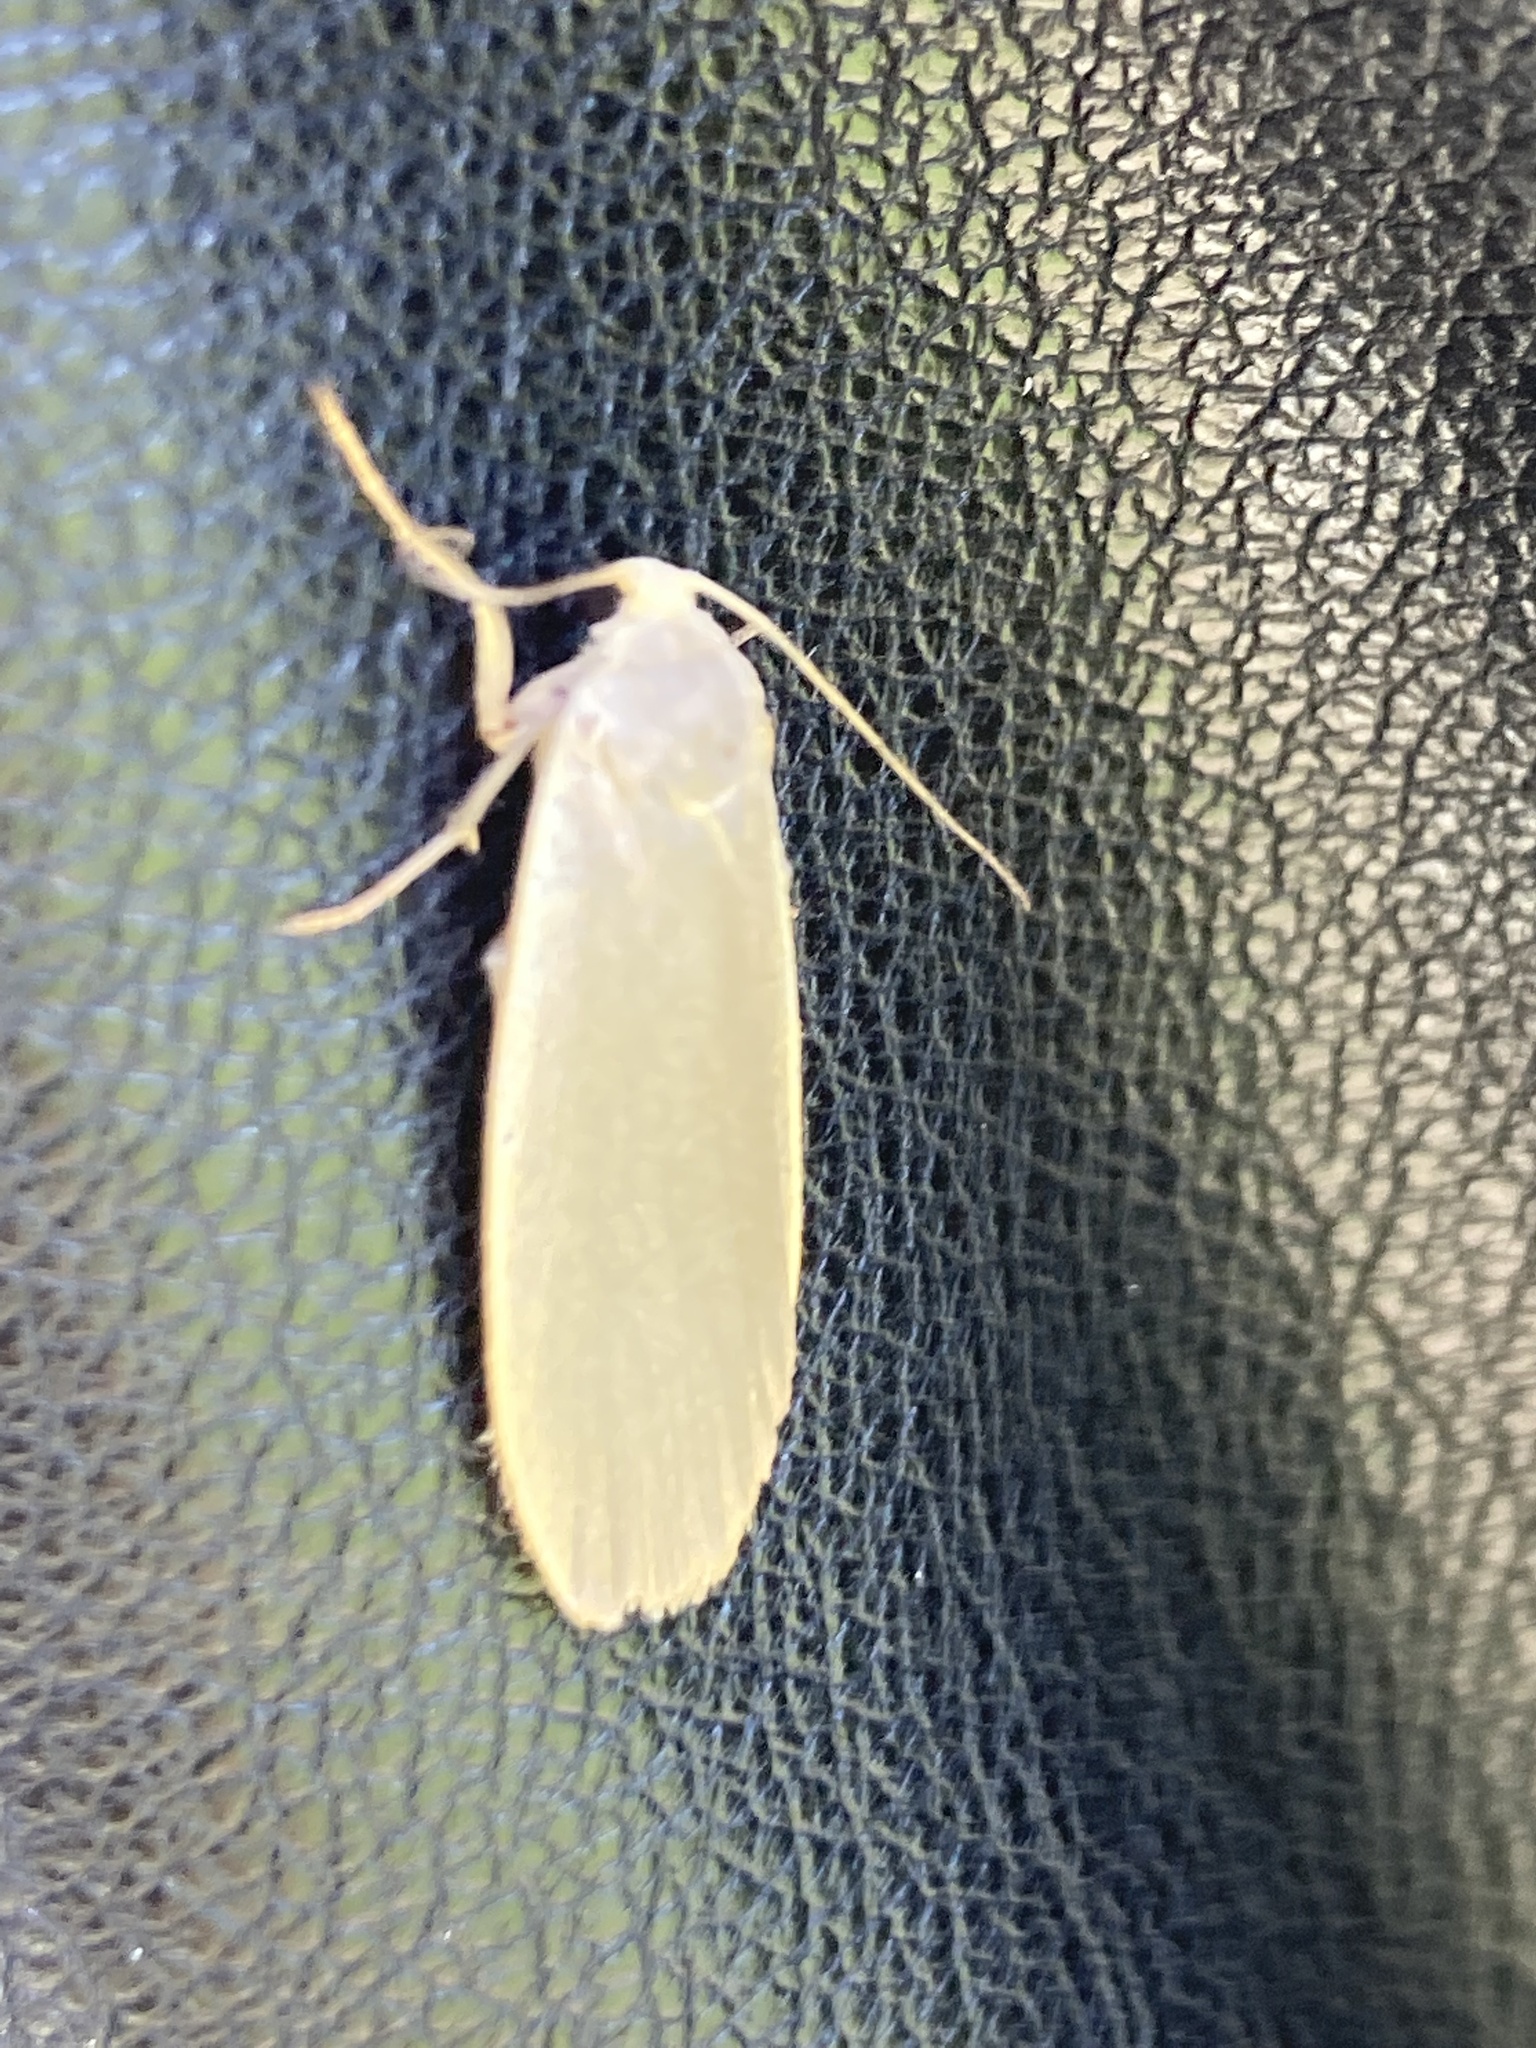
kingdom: Animalia
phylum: Arthropoda
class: Insecta
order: Lepidoptera
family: Erebidae
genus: Collita
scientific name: Collita griseola
